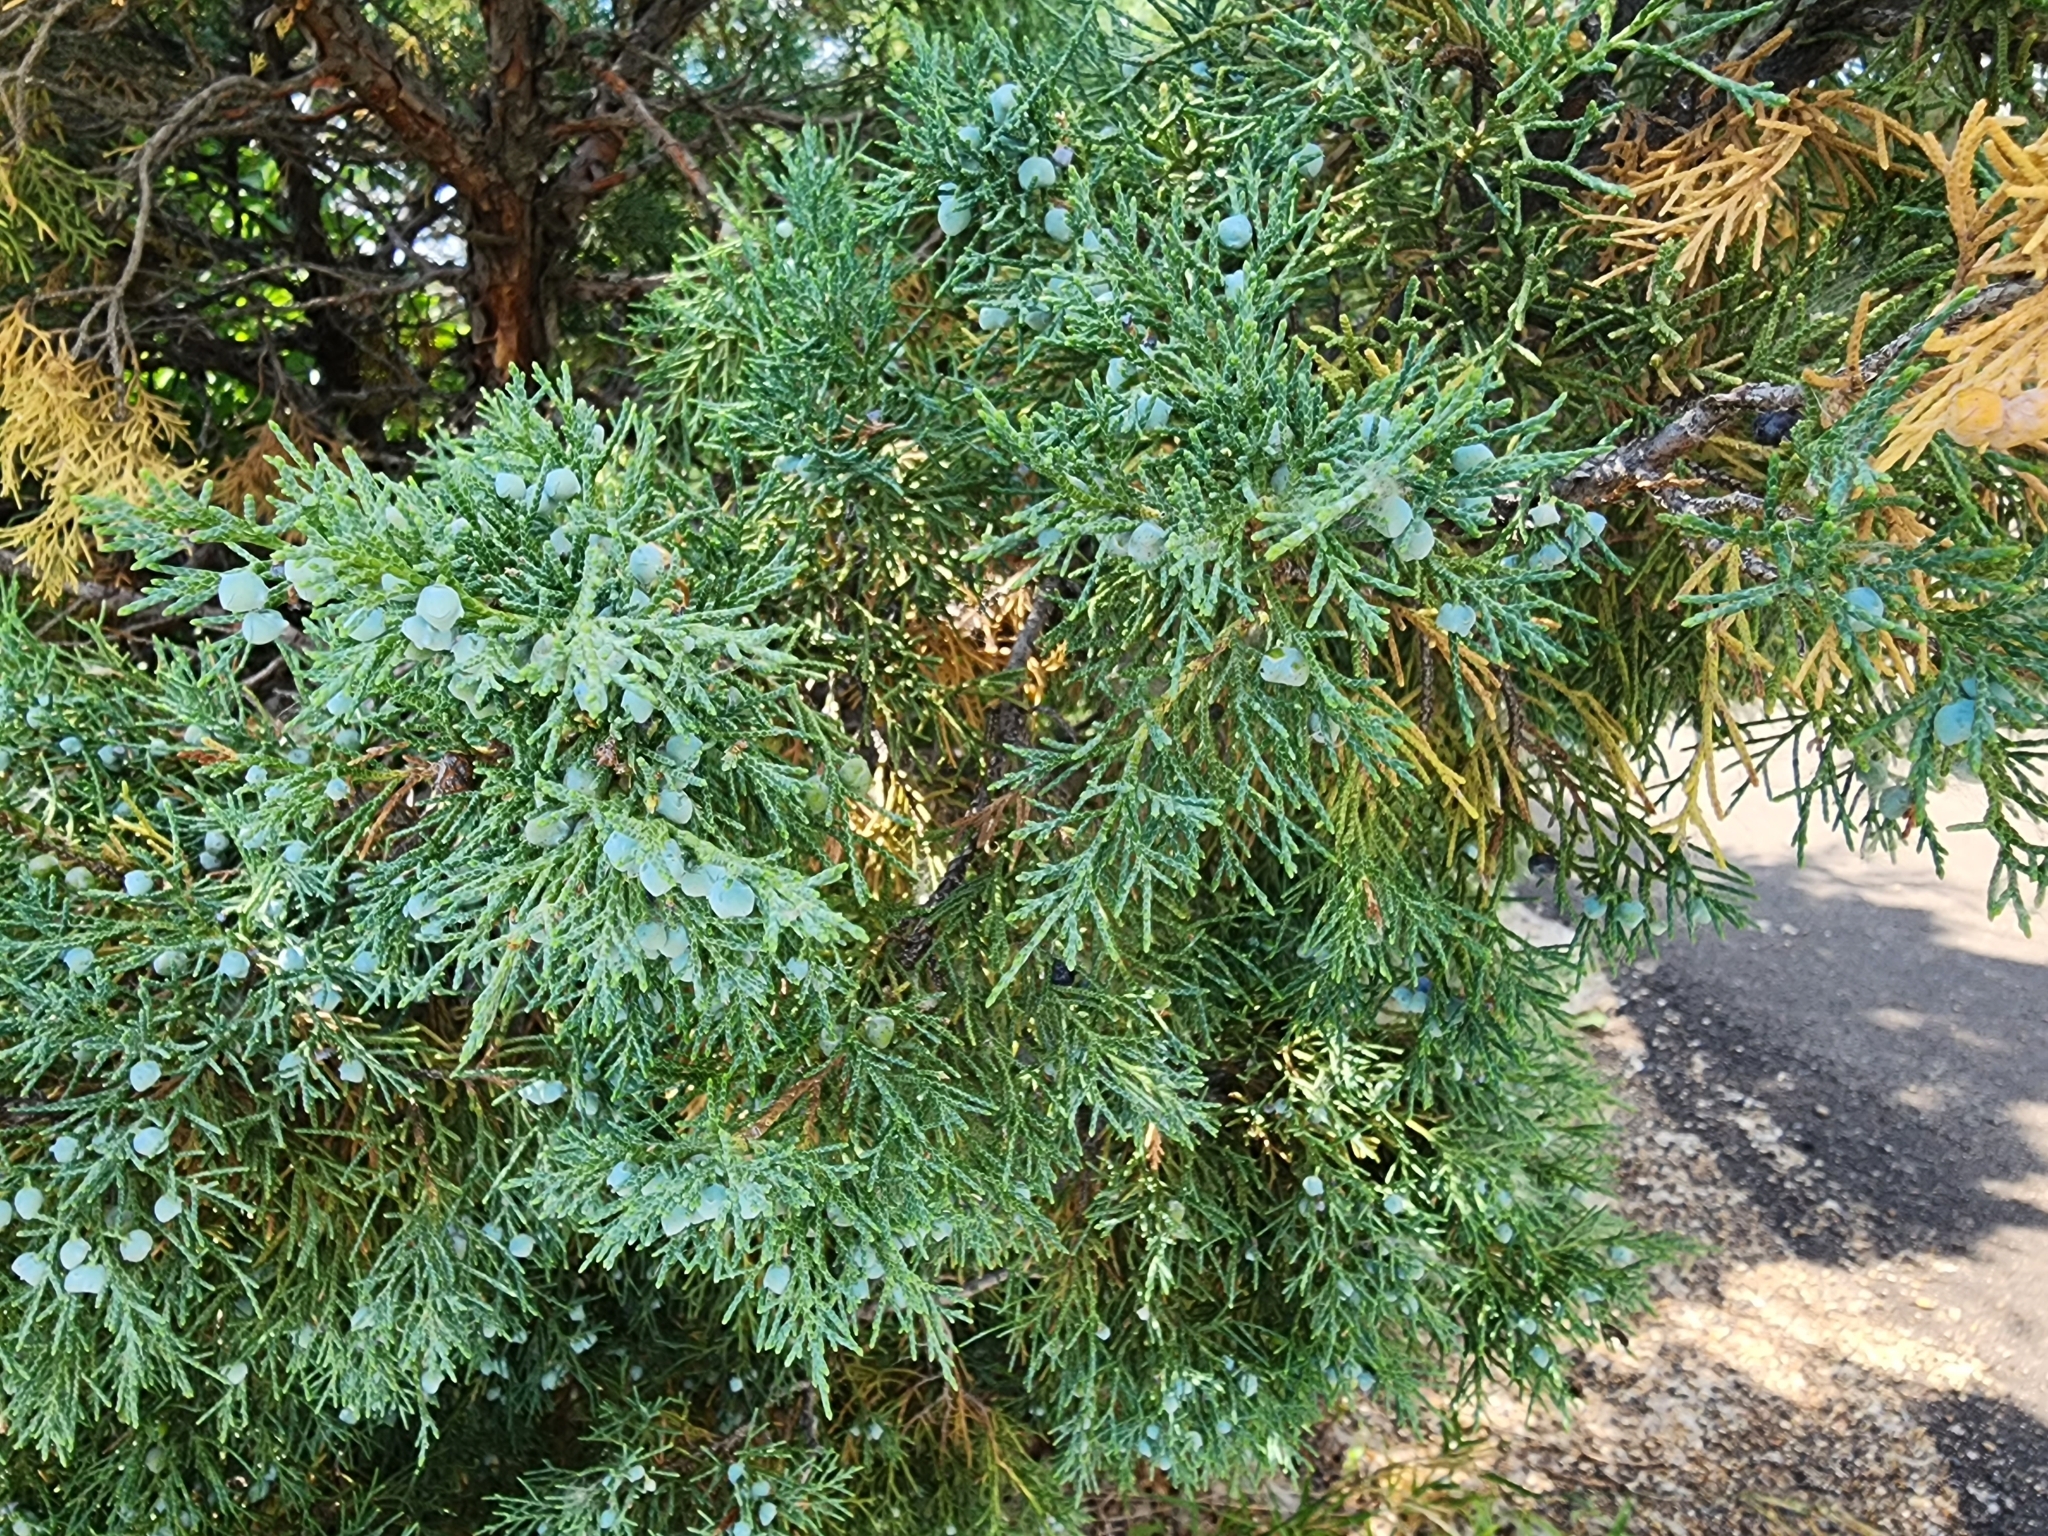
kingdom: Plantae
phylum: Tracheophyta
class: Pinopsida
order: Pinales
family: Cupressaceae
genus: Juniperus
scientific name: Juniperus scopulorum
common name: Rocky mountain juniper
